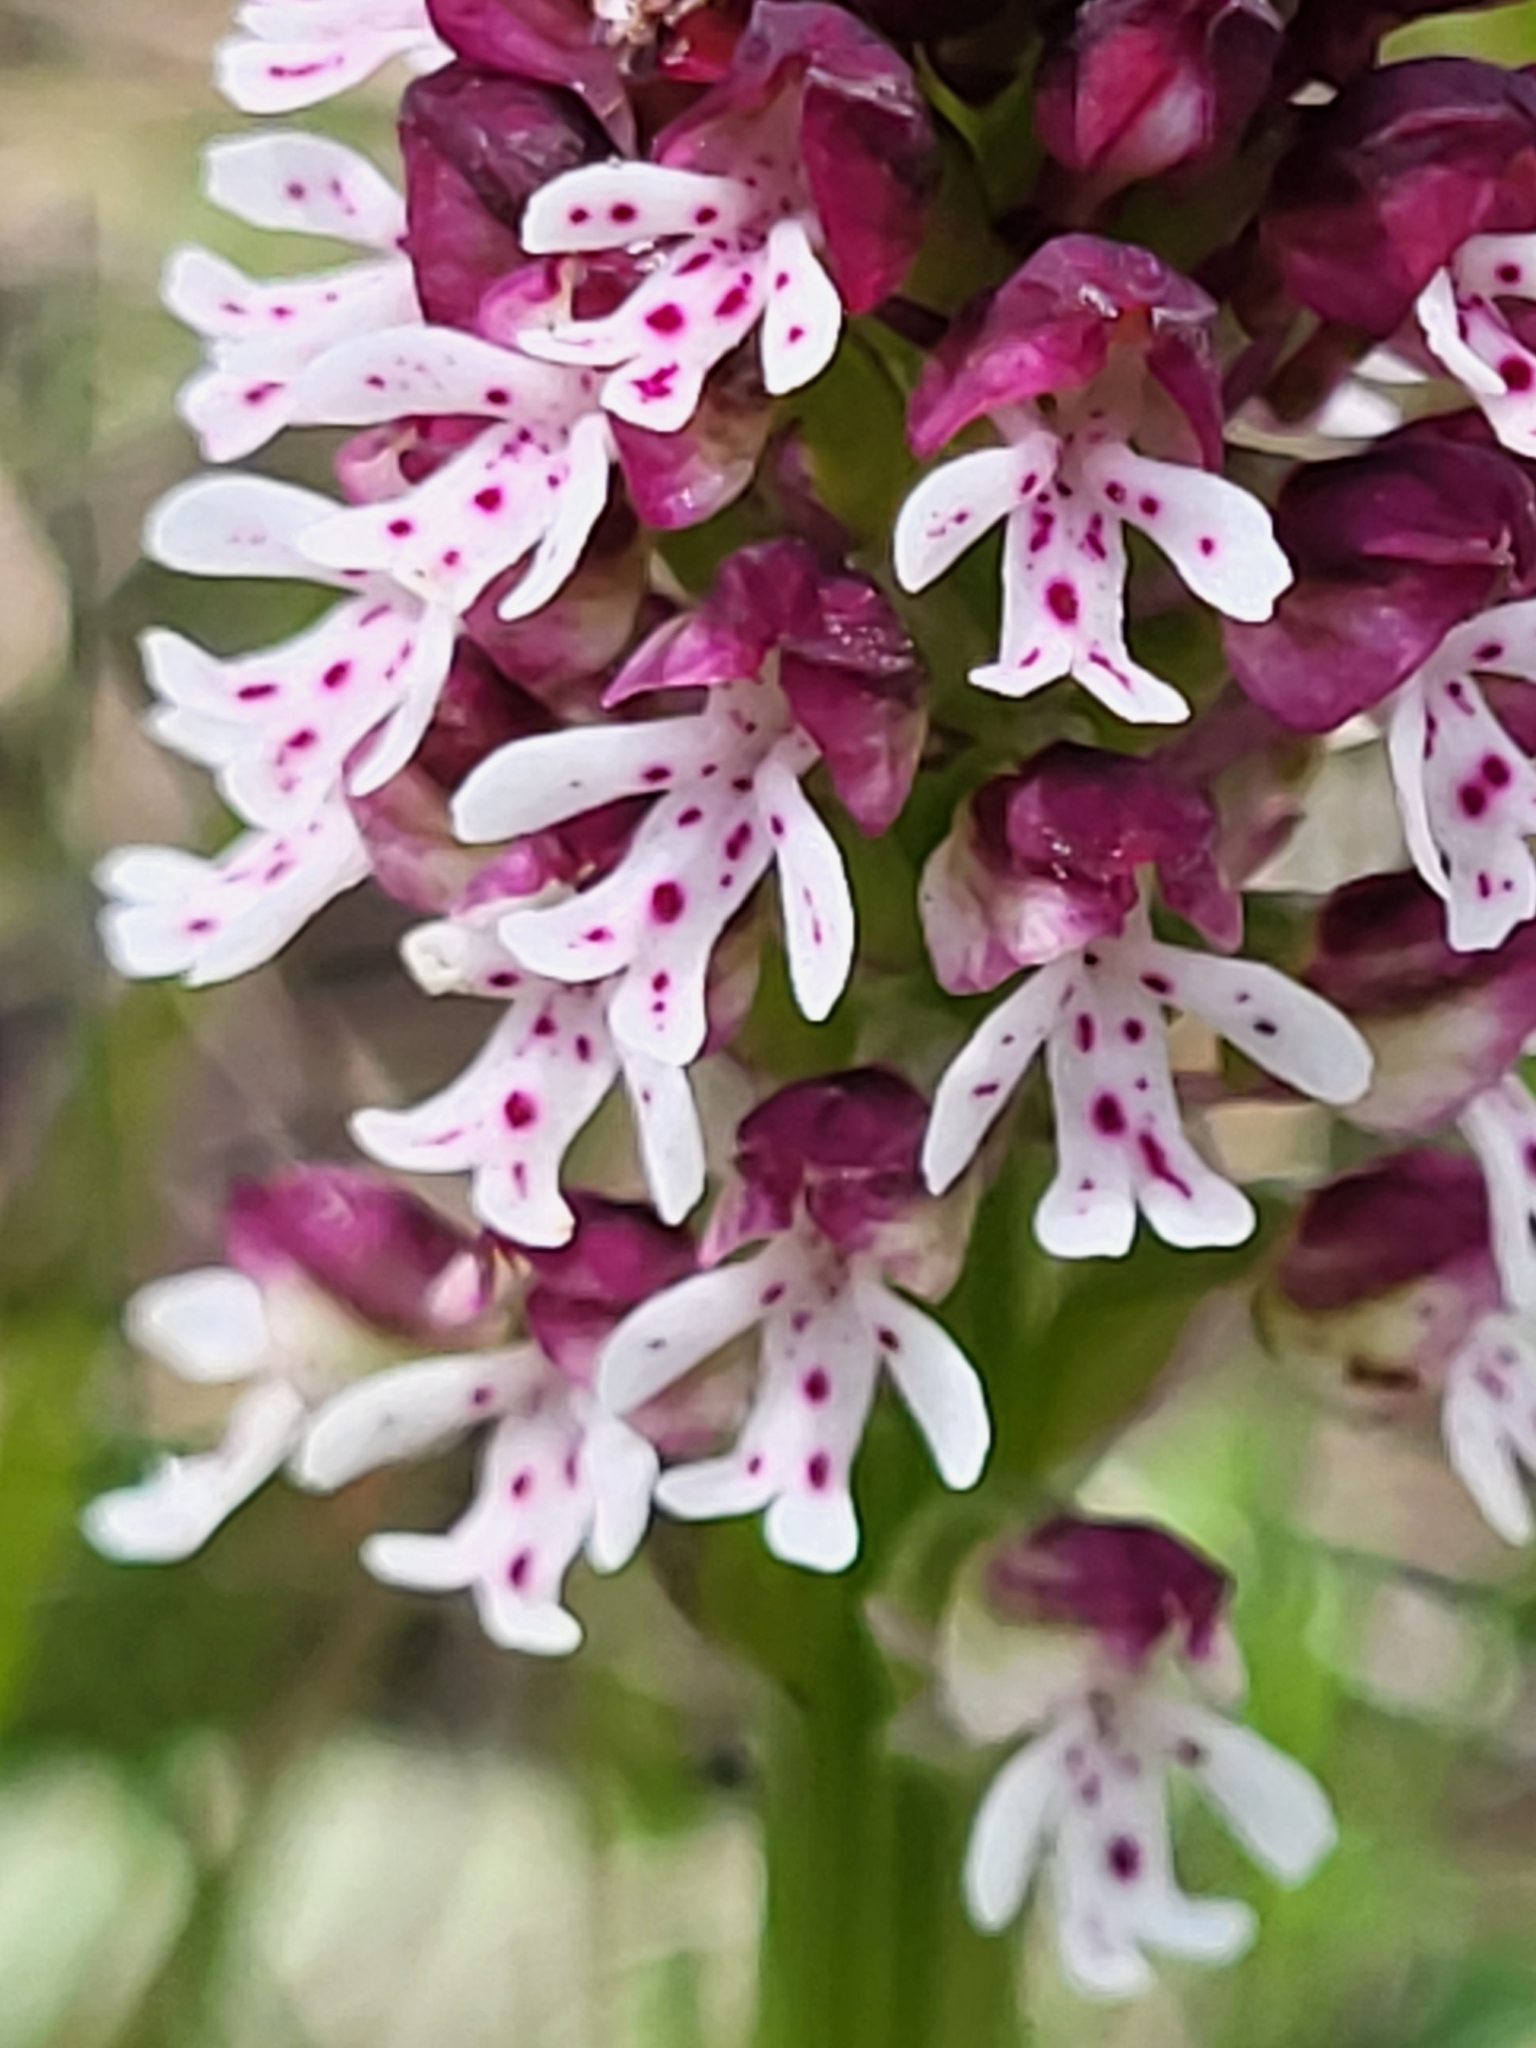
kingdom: Plantae
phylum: Tracheophyta
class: Liliopsida
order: Asparagales
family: Orchidaceae
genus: Neotinea
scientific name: Neotinea ustulata
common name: Burnt orchid
